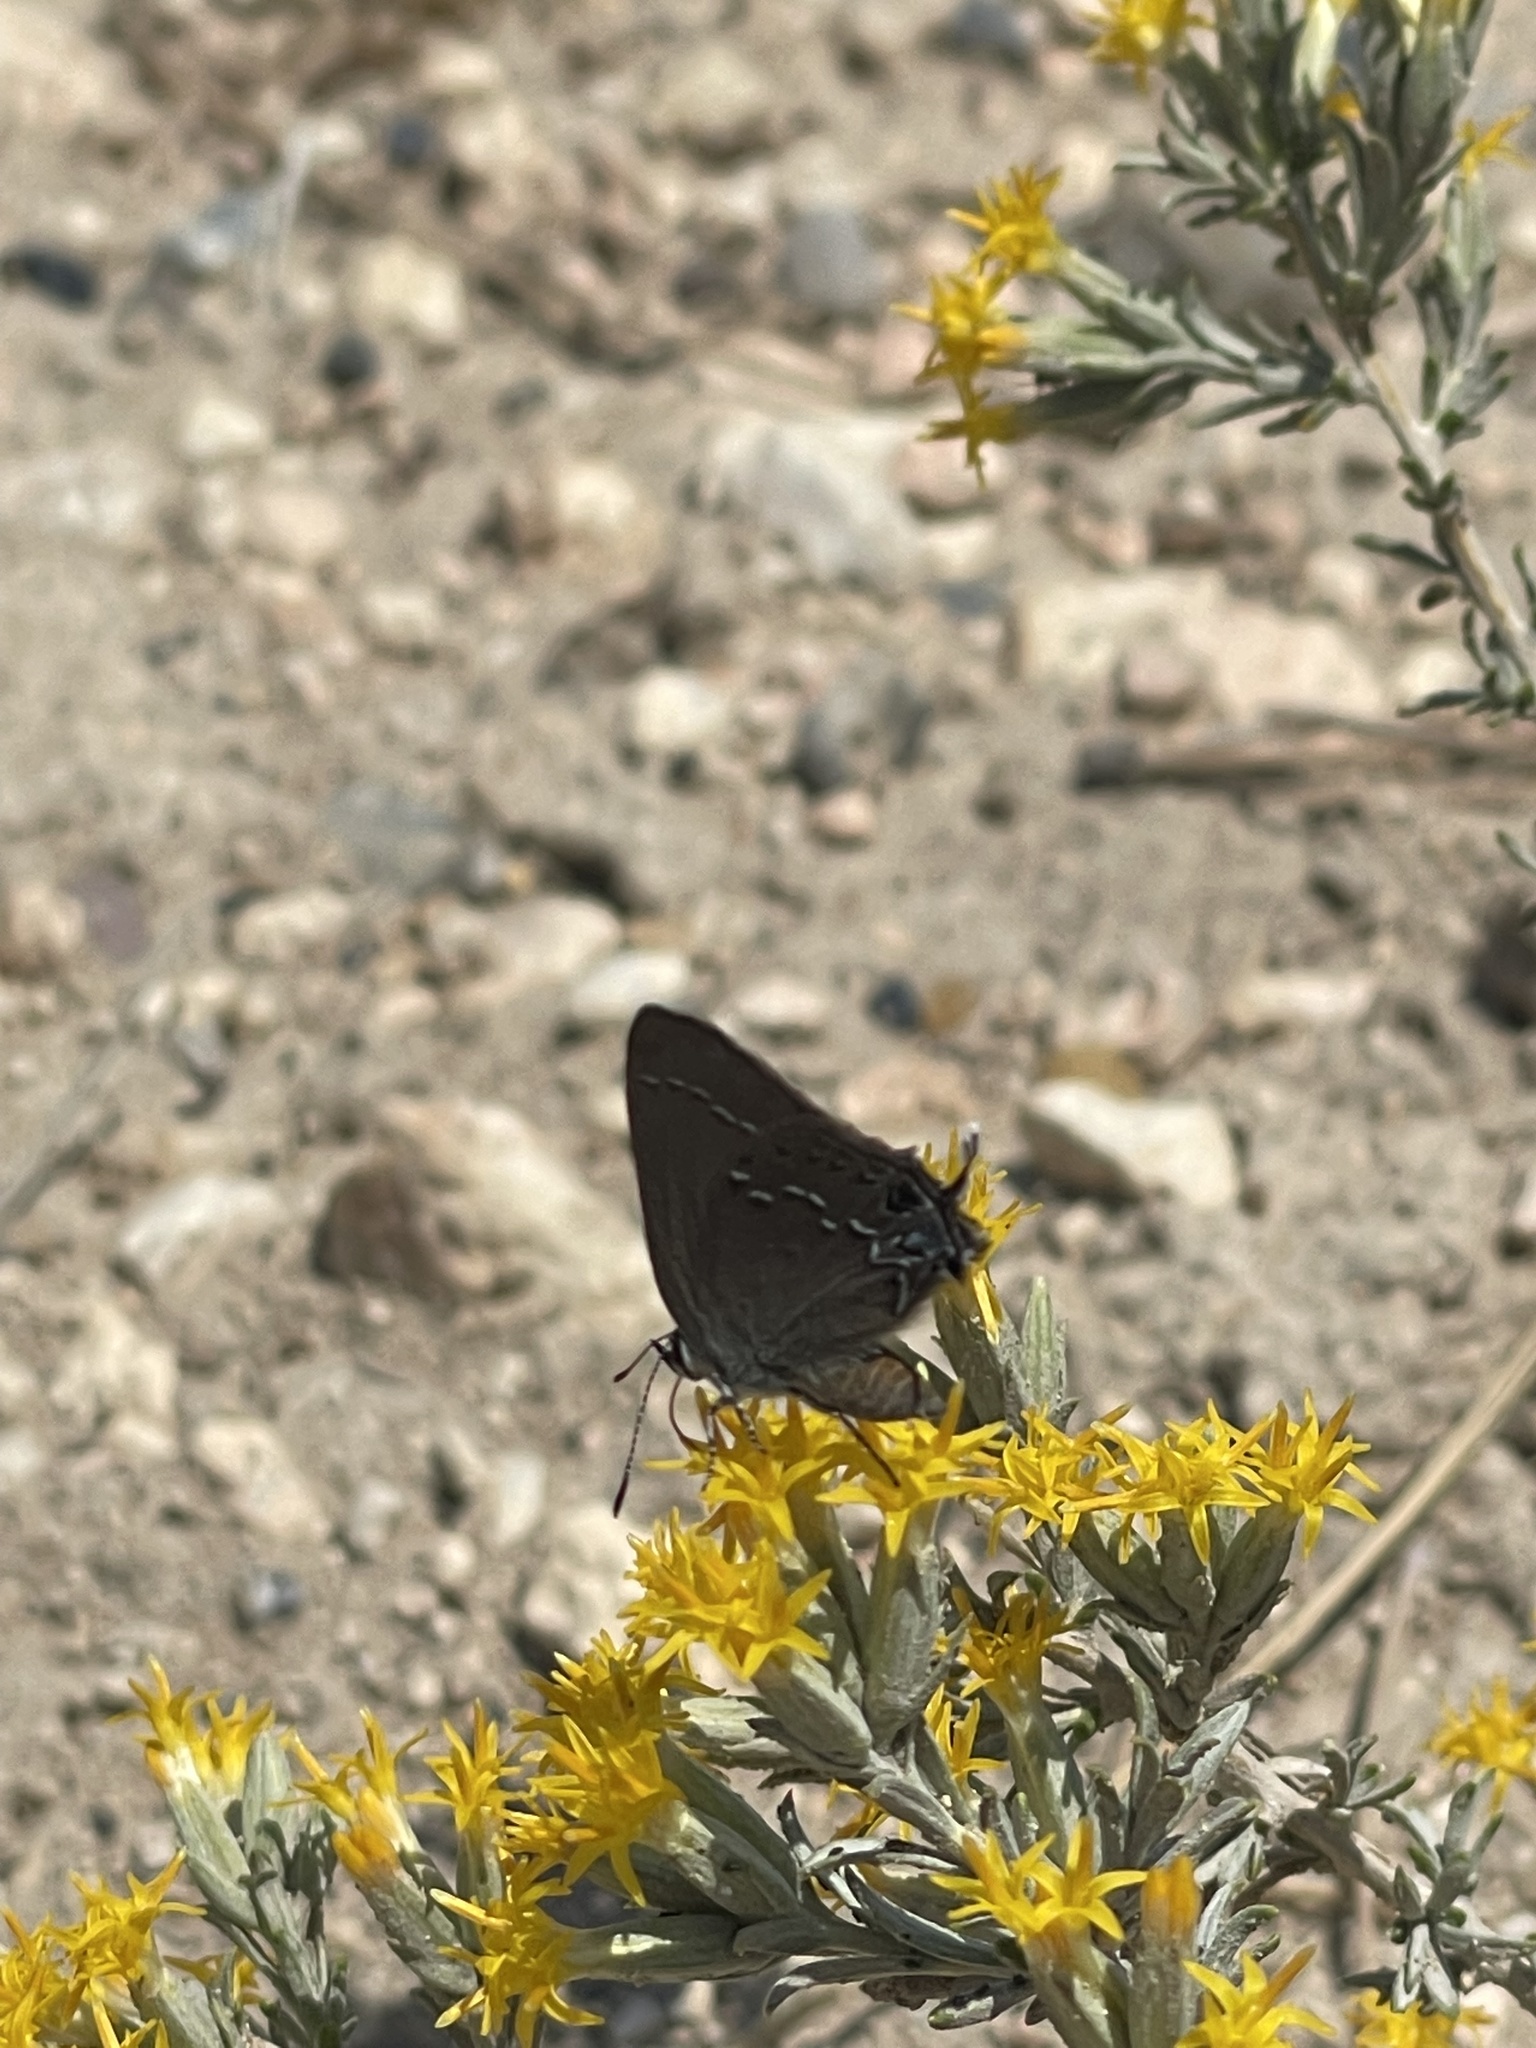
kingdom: Animalia
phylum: Arthropoda
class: Insecta
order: Lepidoptera
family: Lycaenidae
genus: Strymon
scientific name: Strymon saepium
